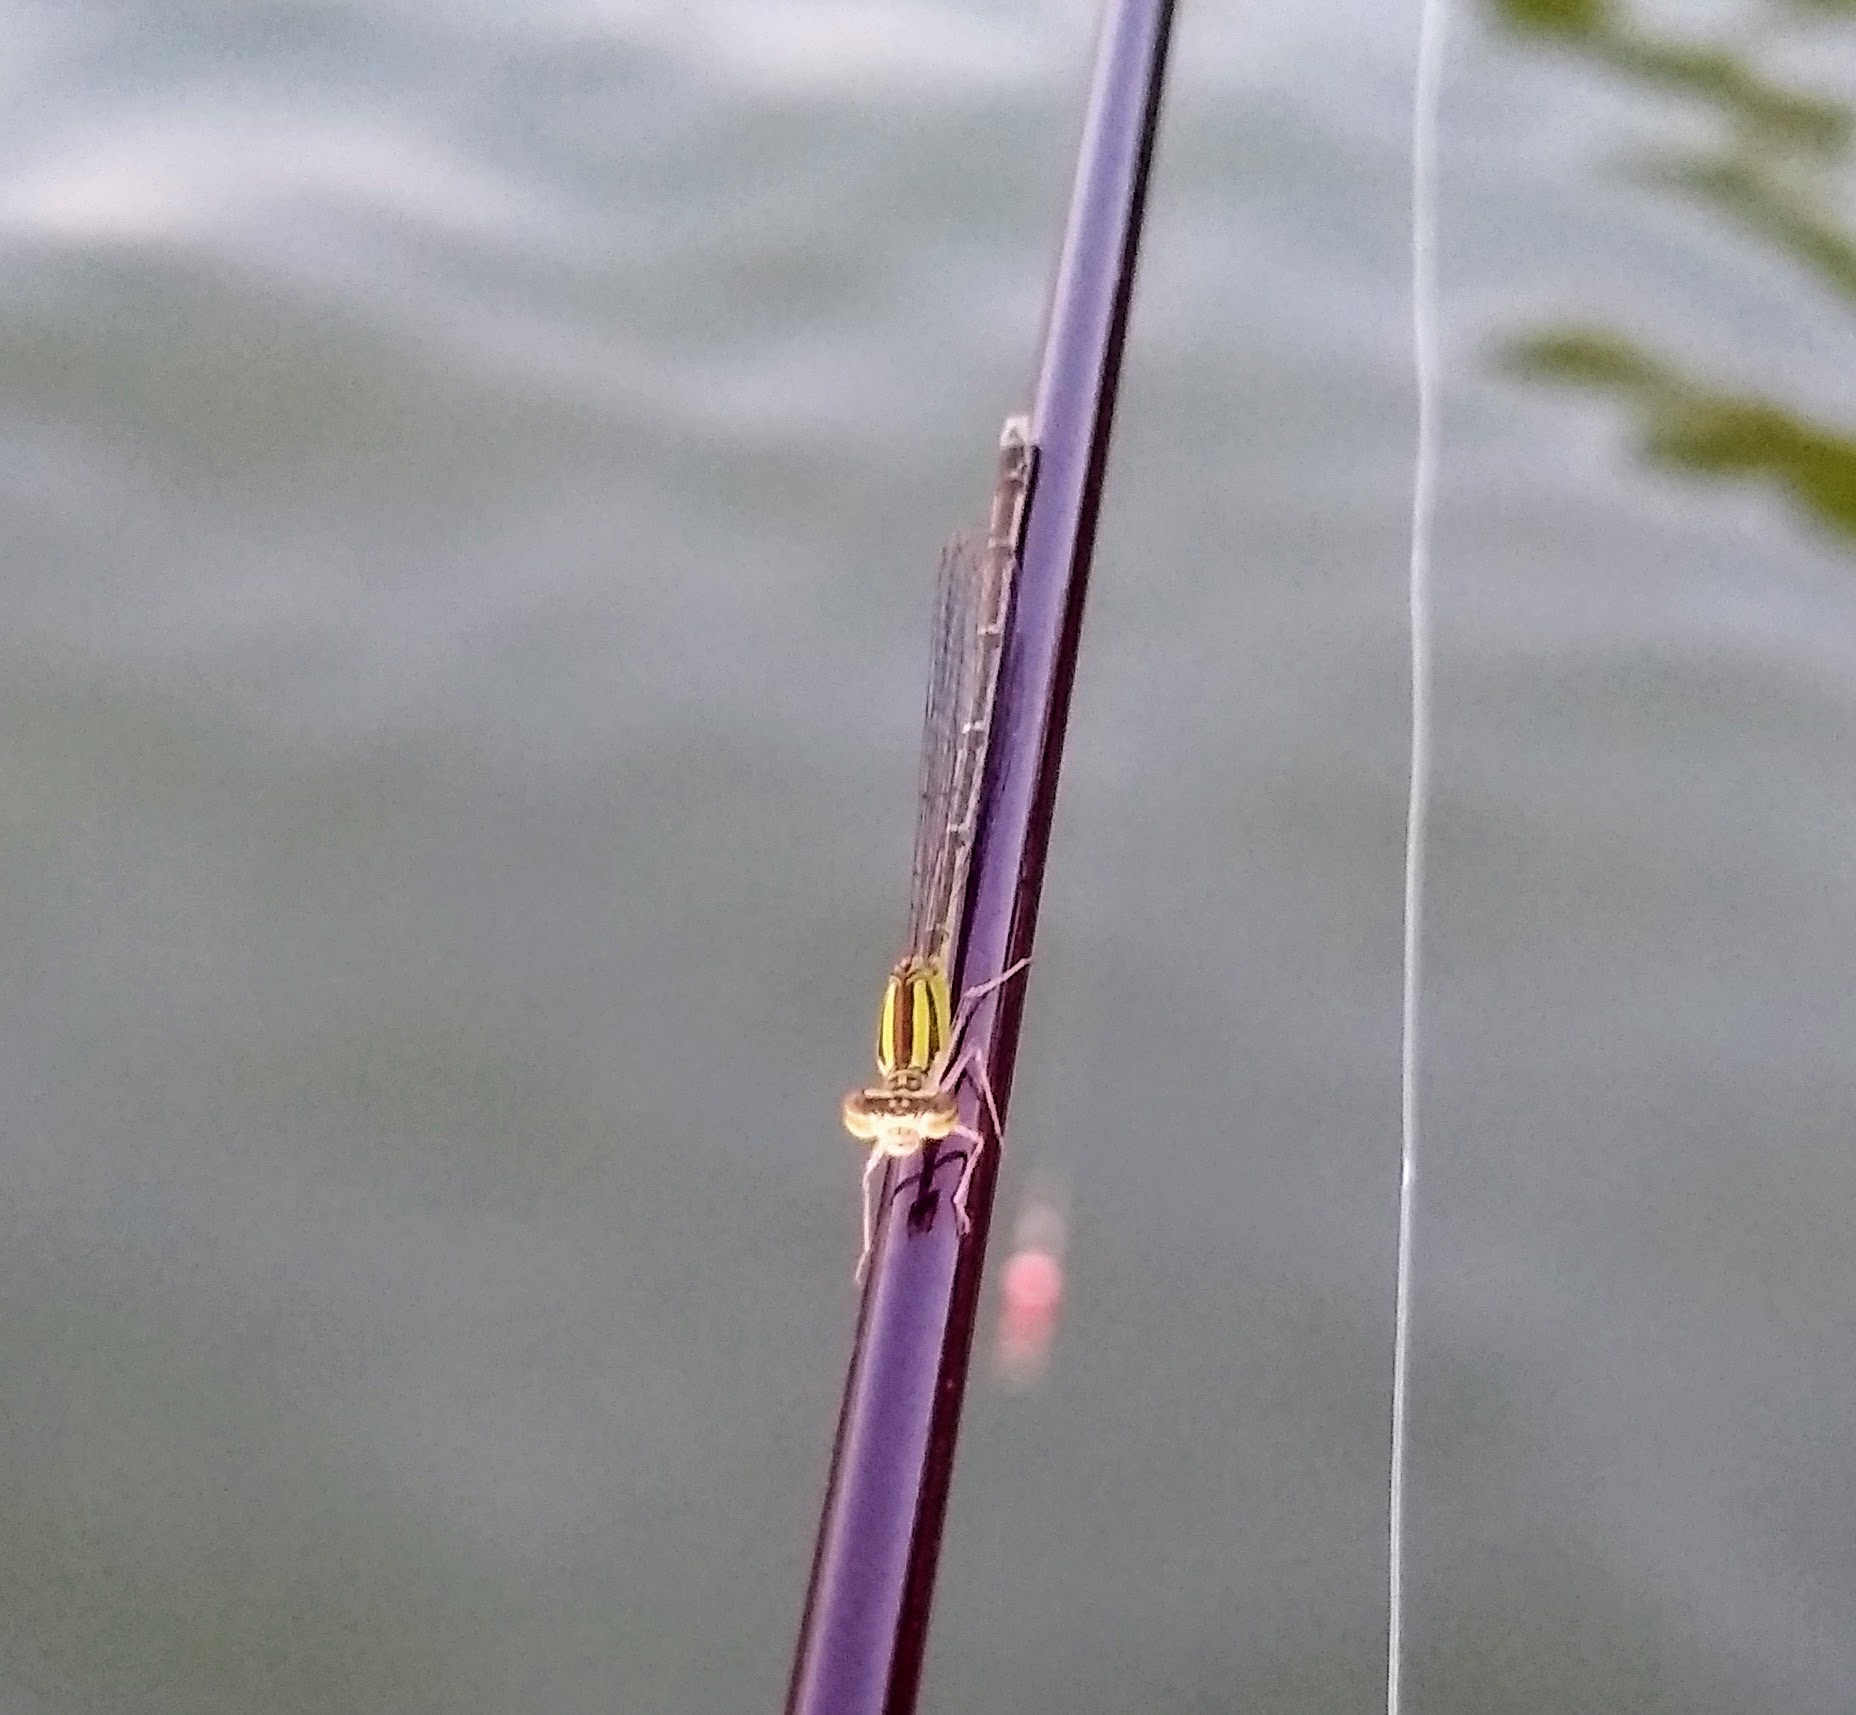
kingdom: Animalia
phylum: Arthropoda
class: Insecta
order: Odonata
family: Coenagrionidae
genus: Enallagma
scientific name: Enallagma signatum
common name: Orange bluet
